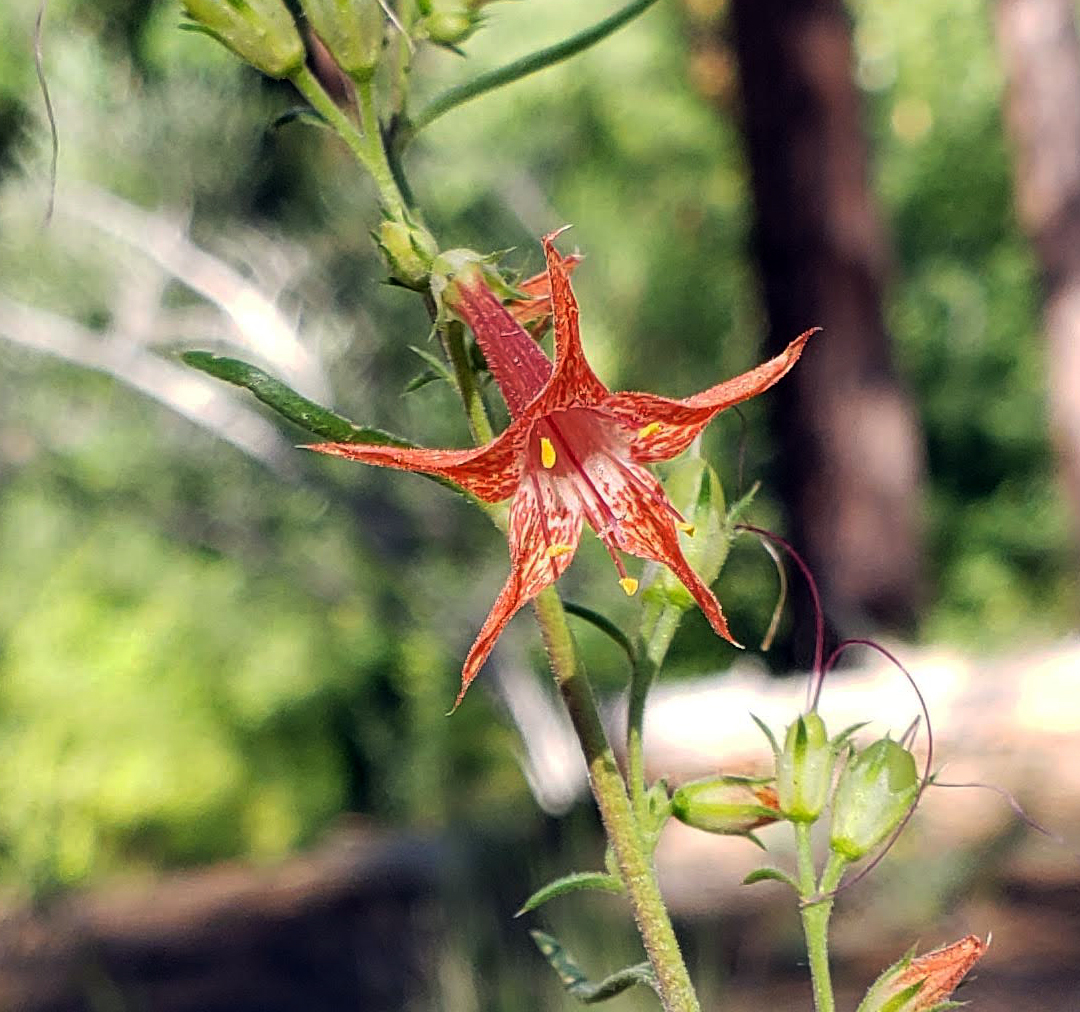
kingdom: Plantae
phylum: Tracheophyta
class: Magnoliopsida
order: Ericales
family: Polemoniaceae
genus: Ipomopsis
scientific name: Ipomopsis aggregata
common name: Scarlet gilia
